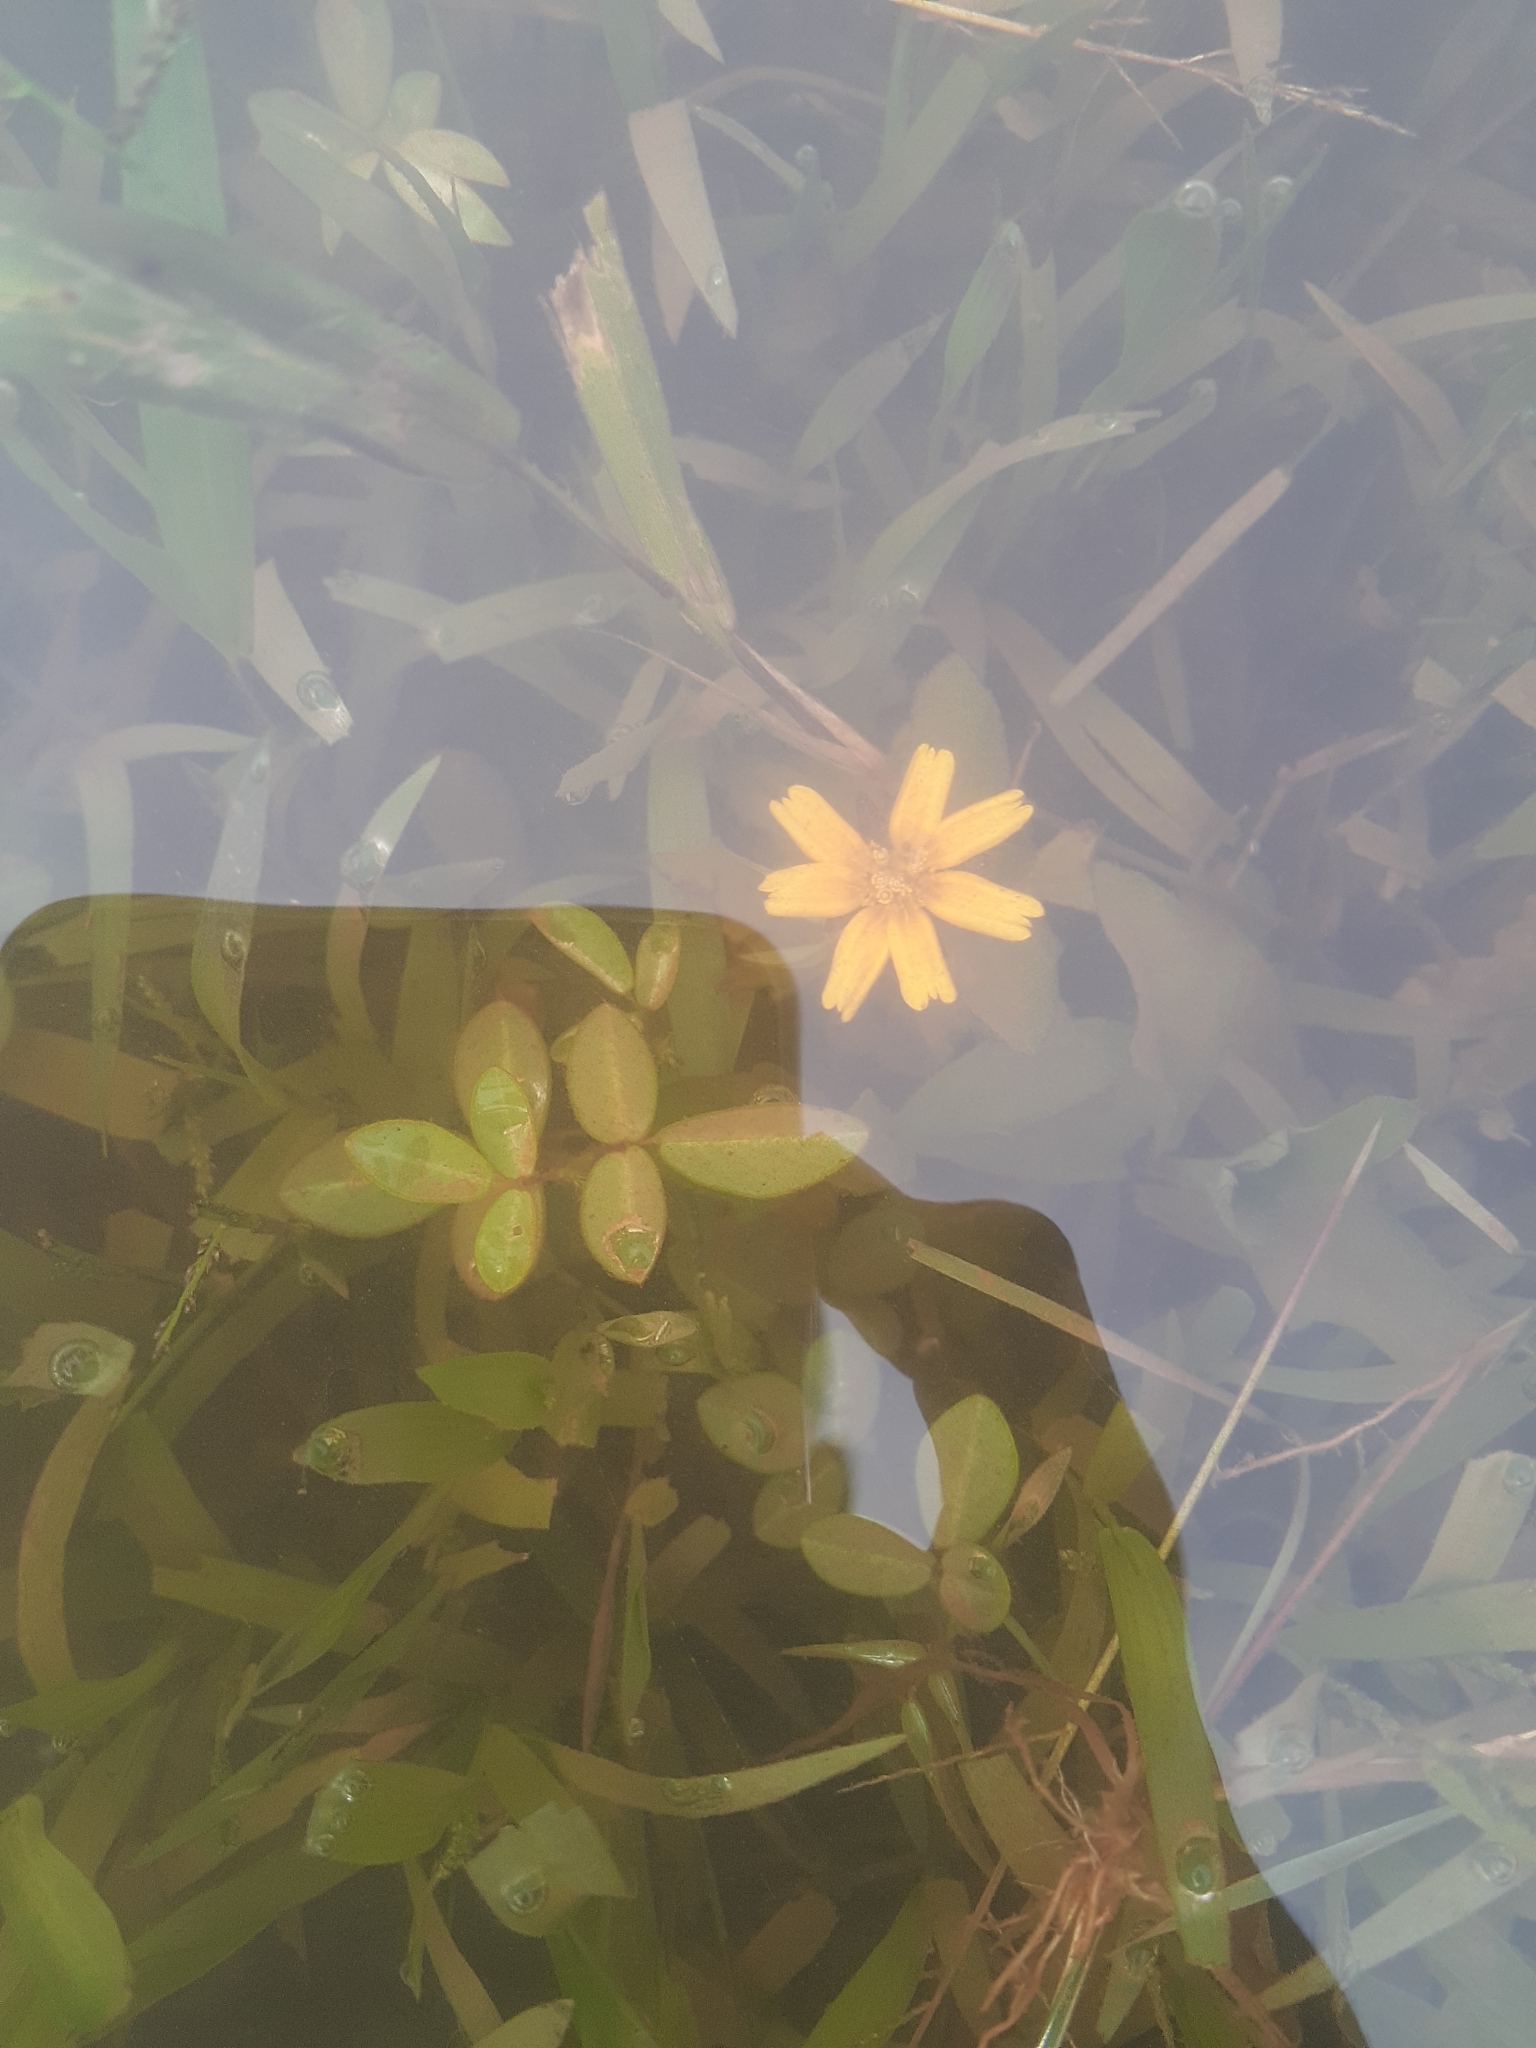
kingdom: Plantae
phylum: Tracheophyta
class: Magnoliopsida
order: Asterales
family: Asteraceae
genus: Sphagneticola
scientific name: Sphagneticola trilobata
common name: Bay biscayne creeping-oxeye
